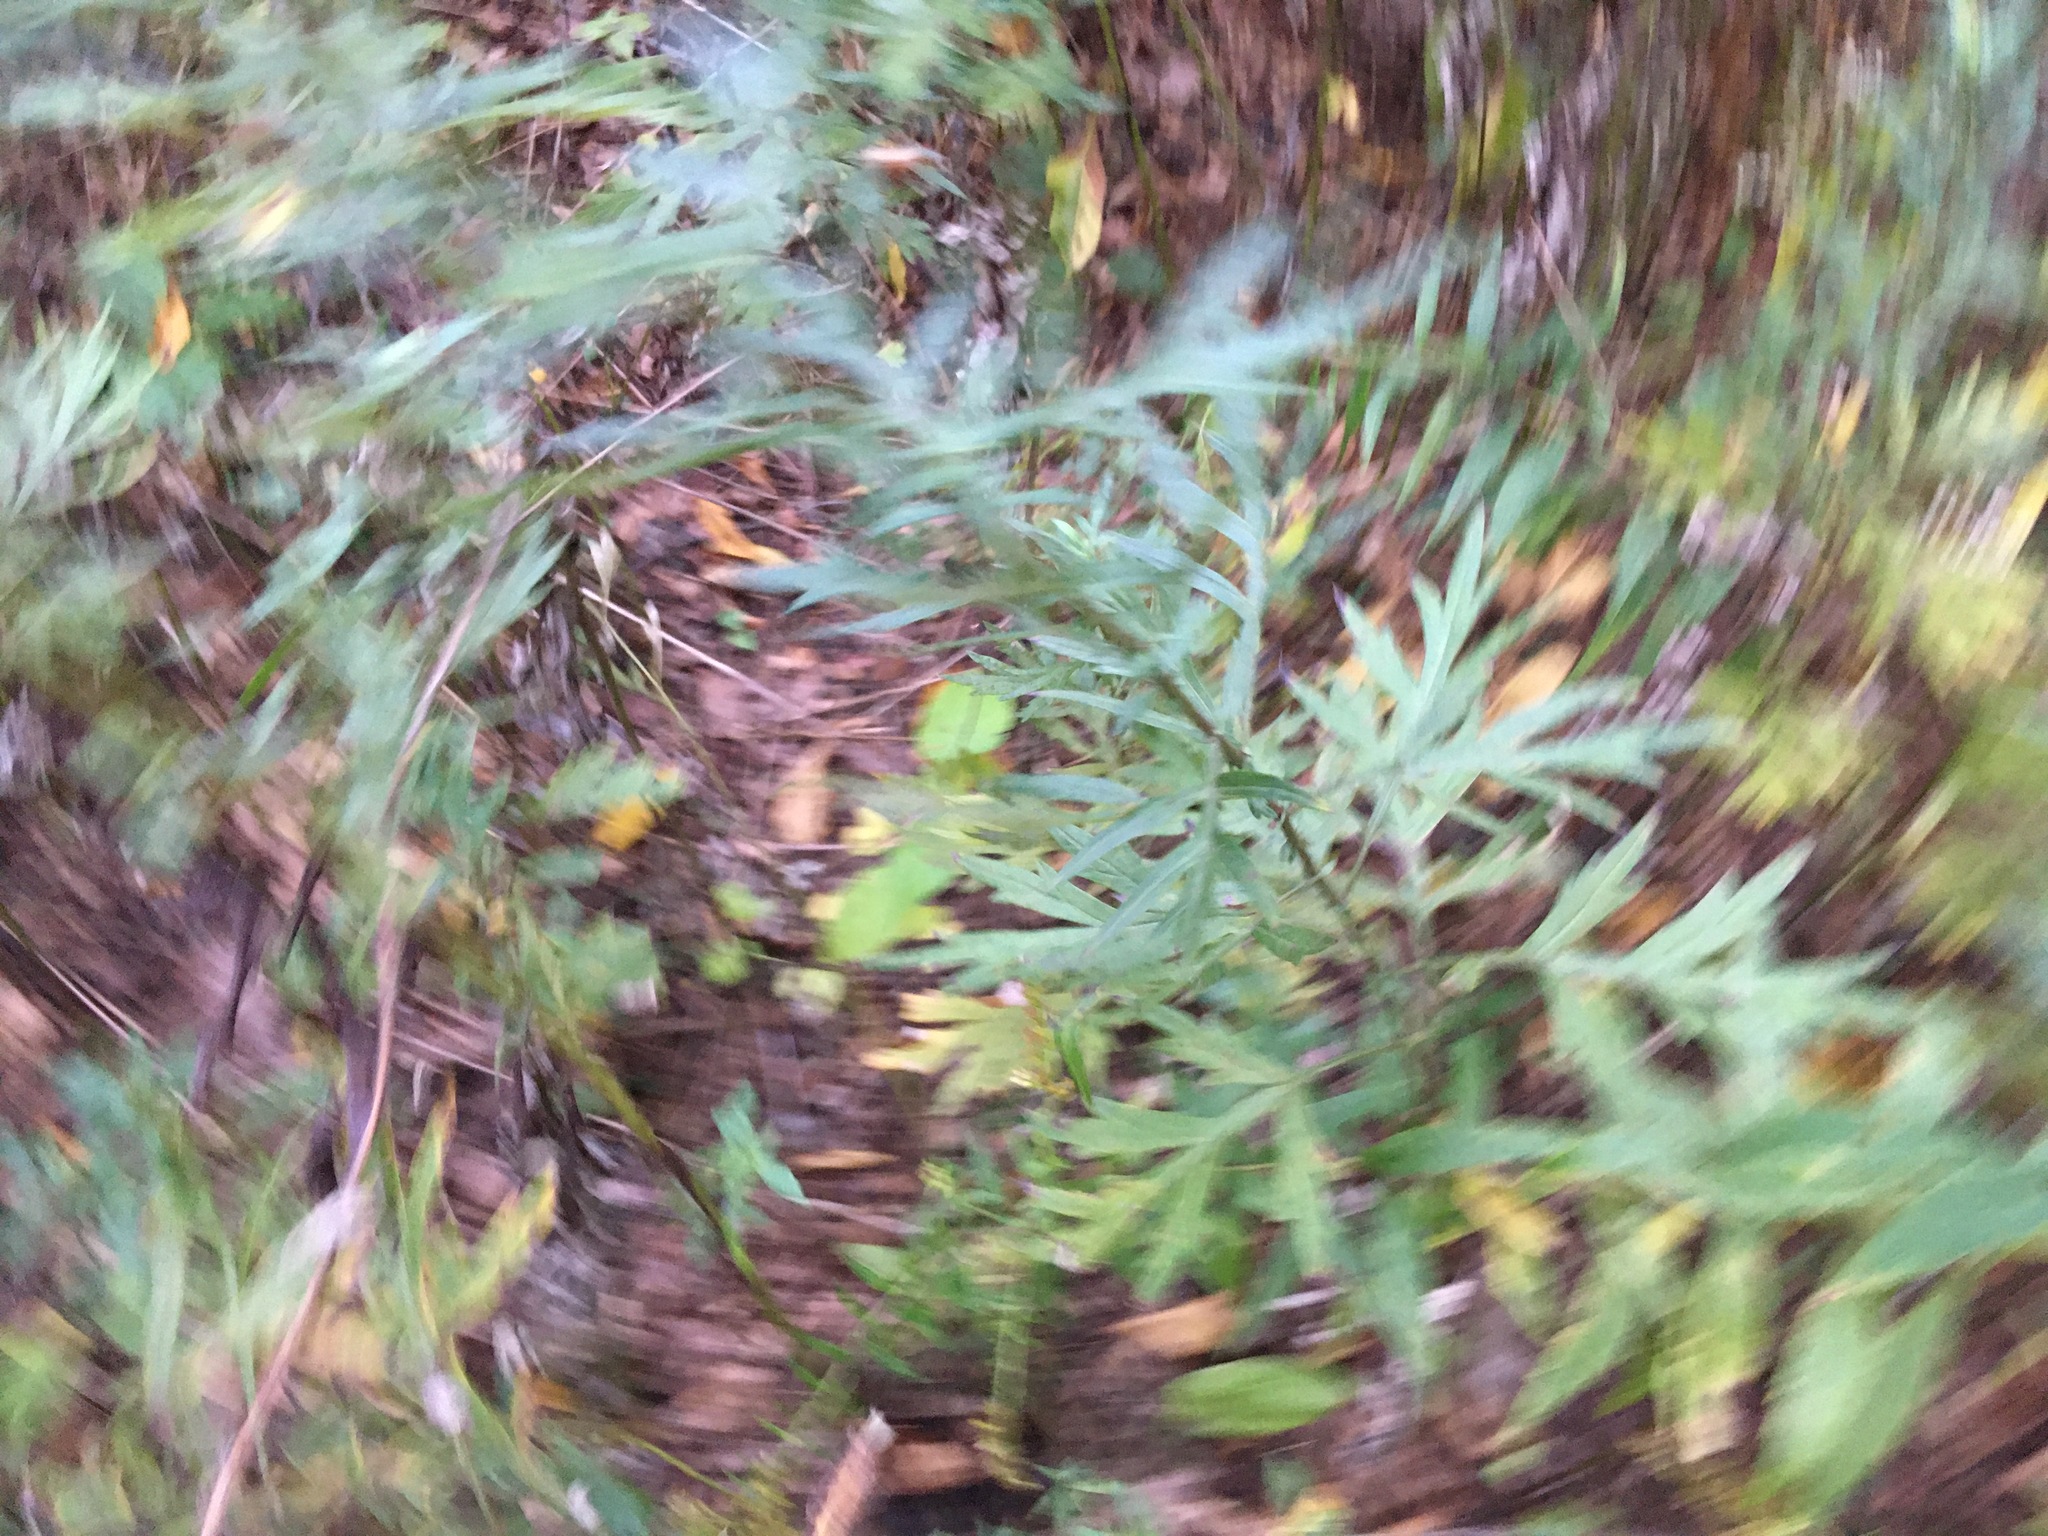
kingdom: Plantae
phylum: Tracheophyta
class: Magnoliopsida
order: Asterales
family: Asteraceae
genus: Artemisia
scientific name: Artemisia vulgaris
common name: Mugwort
